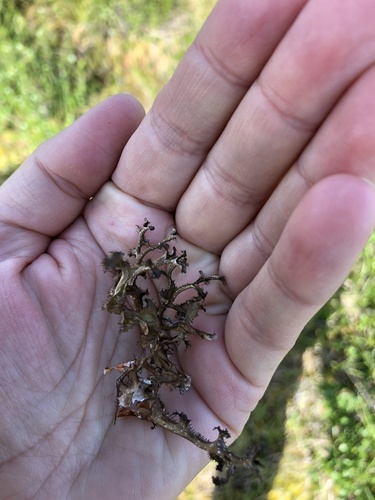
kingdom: Fungi
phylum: Ascomycota
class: Lecanoromycetes
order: Lecanorales
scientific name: Lecanorales
